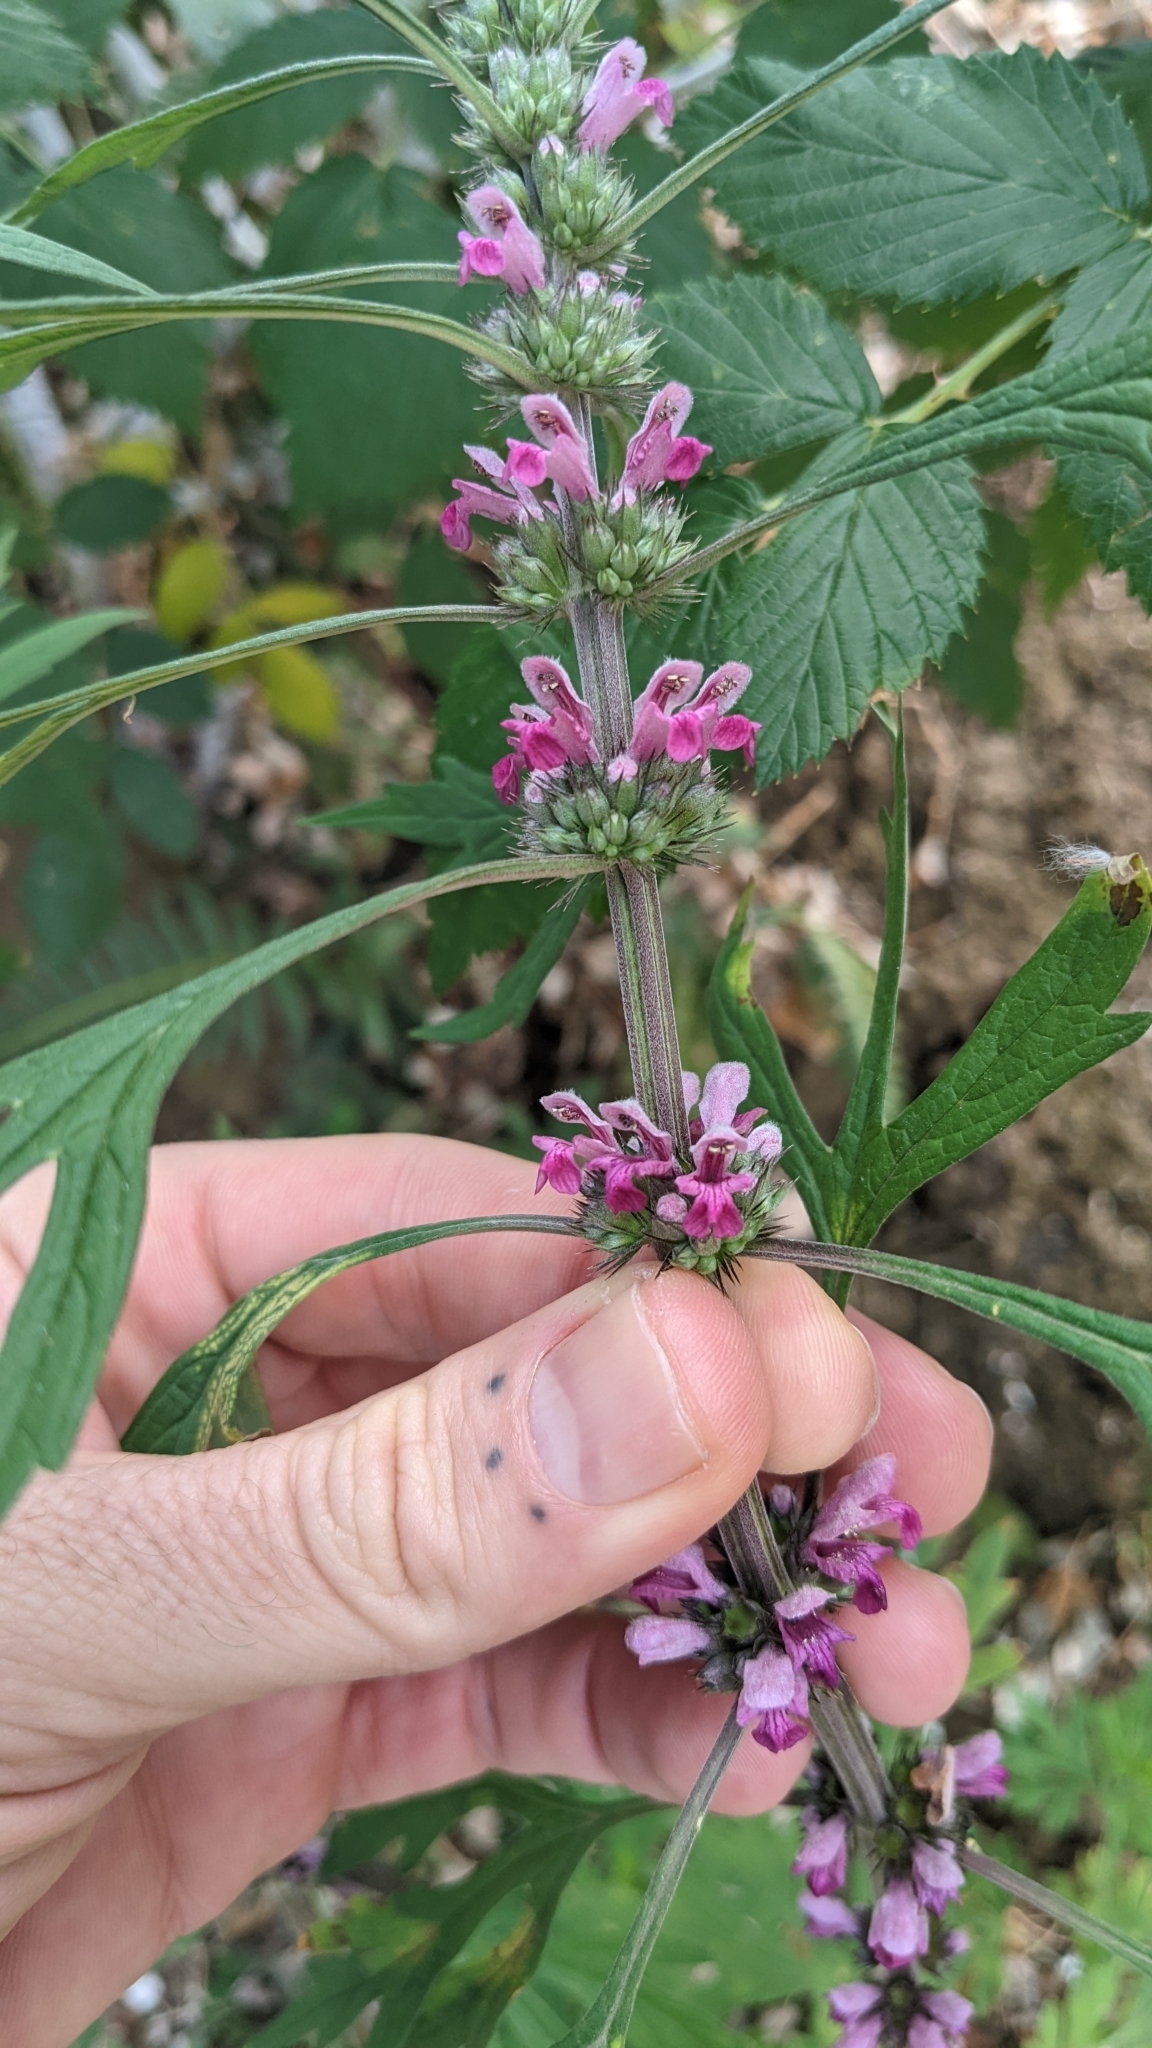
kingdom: Plantae
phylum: Tracheophyta
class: Magnoliopsida
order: Lamiales
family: Lamiaceae
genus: Leonurus
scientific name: Leonurus japonicus
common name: Honeyweed
